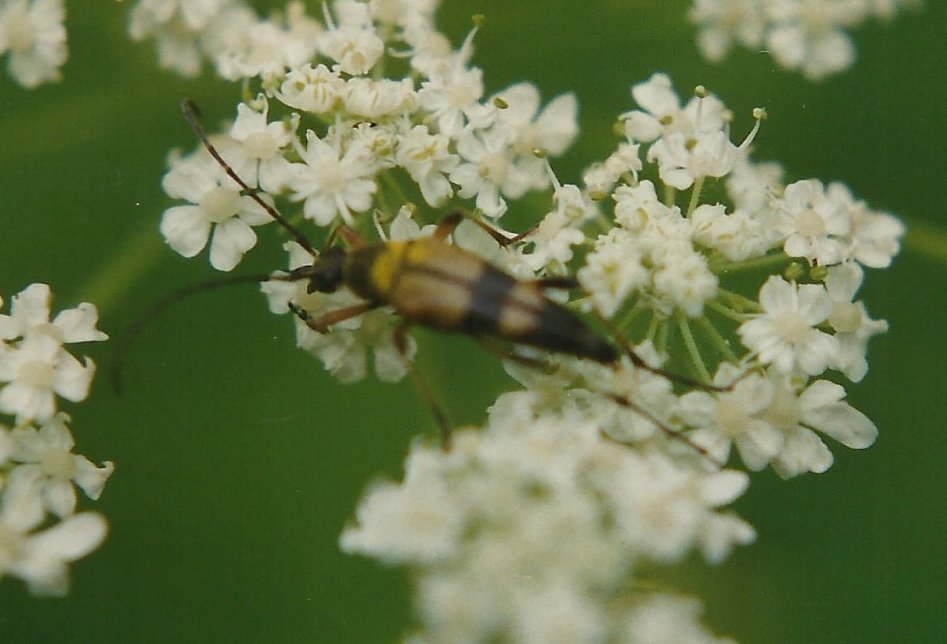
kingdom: Animalia
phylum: Arthropoda
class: Insecta
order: Coleoptera
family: Cerambycidae
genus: Etorofus
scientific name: Etorofus obliteratus
